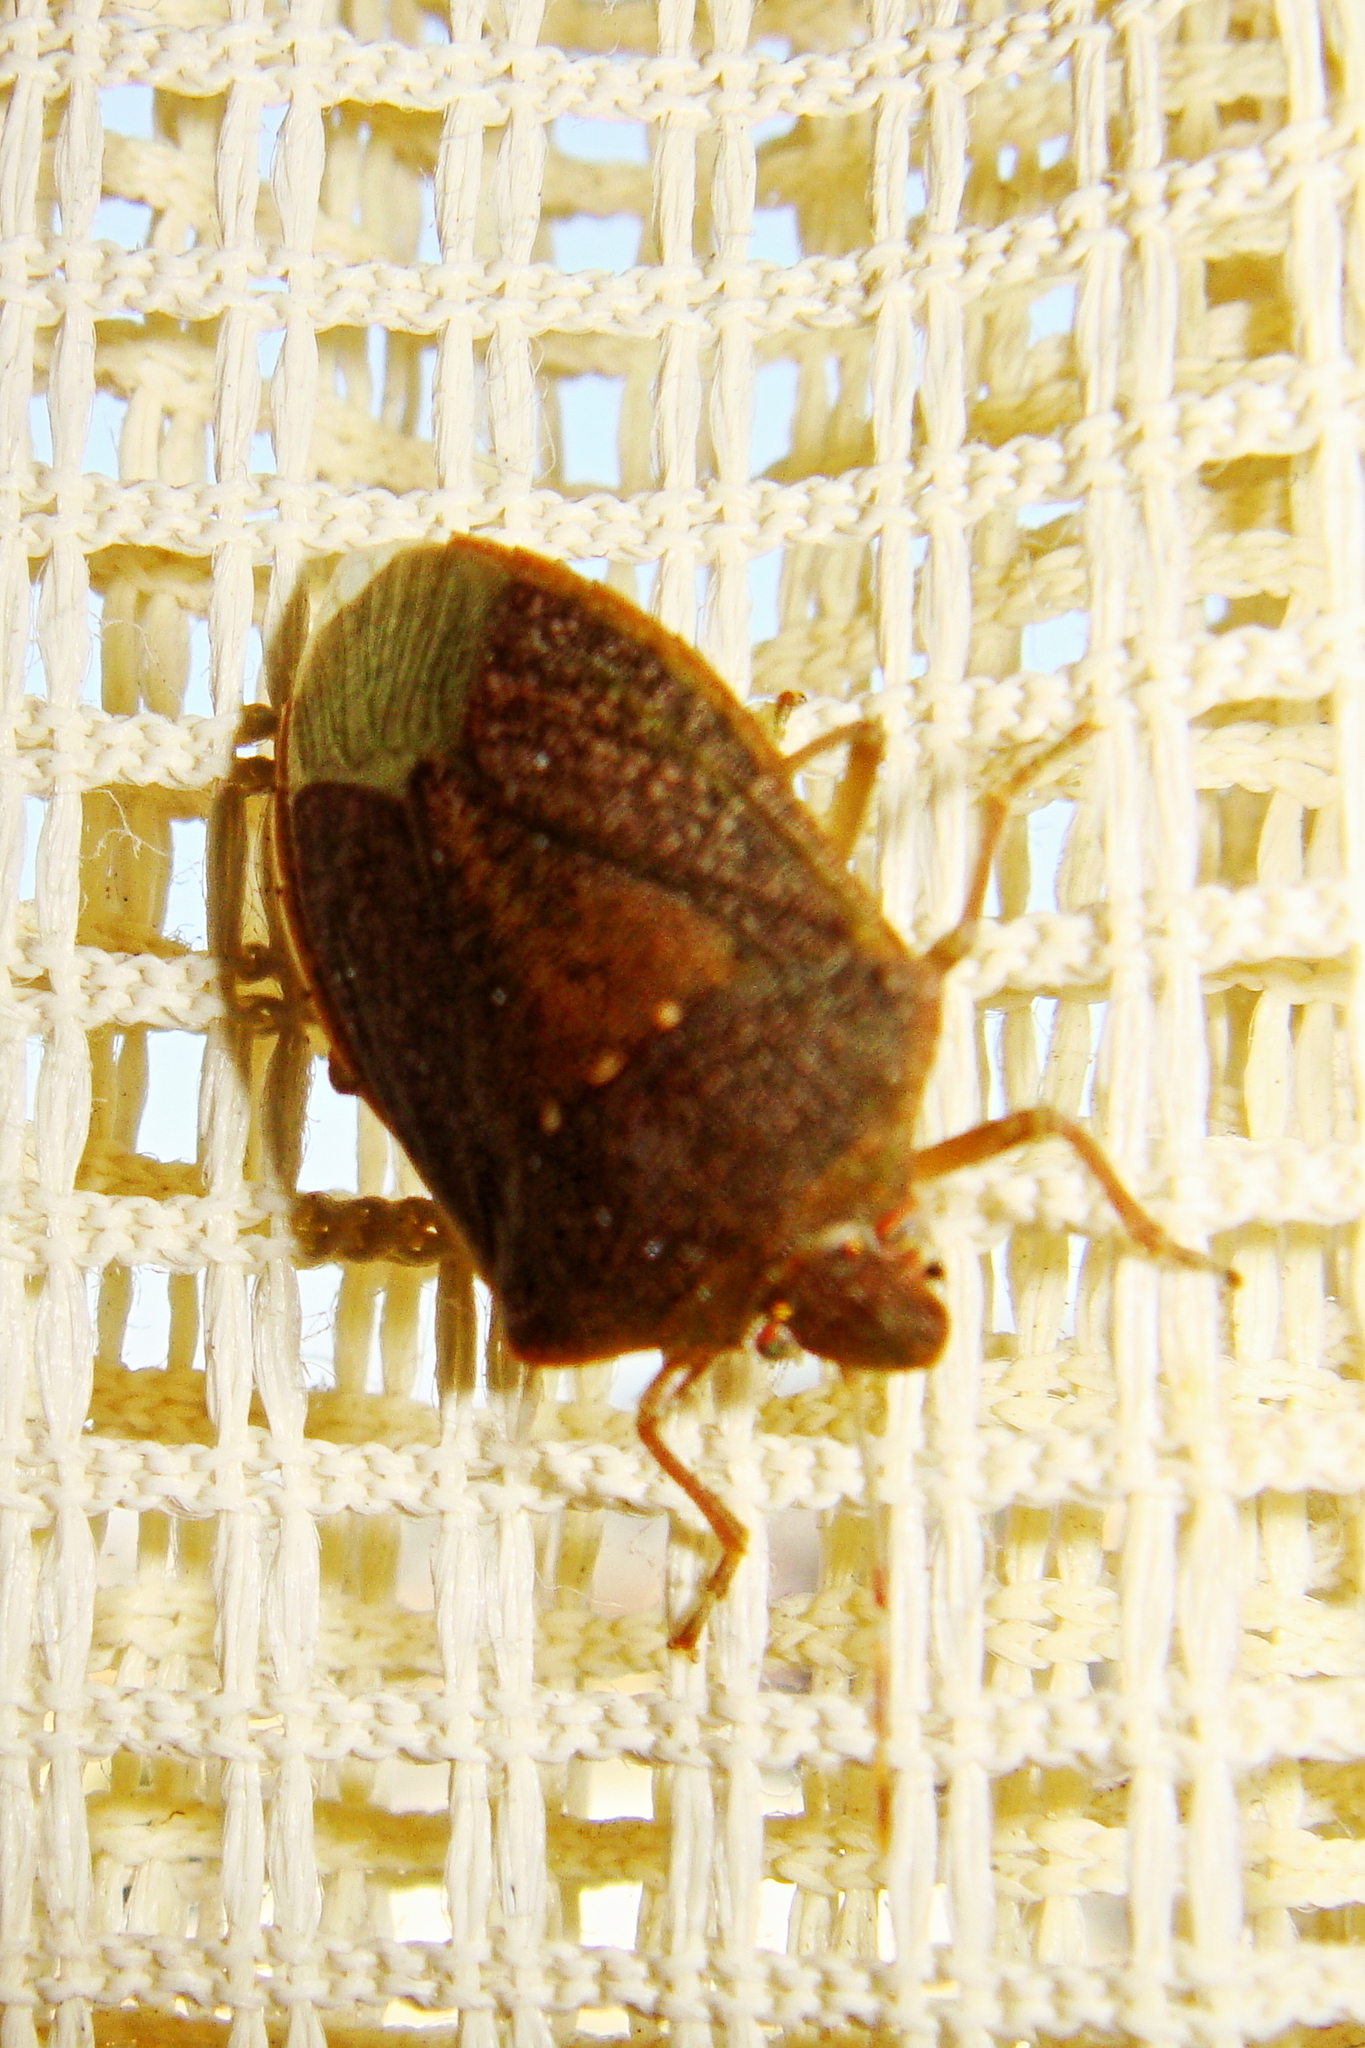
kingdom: Animalia
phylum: Arthropoda
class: Insecta
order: Hemiptera
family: Pentatomidae
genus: Nezara
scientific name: Nezara viridula
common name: Southern green stink bug
